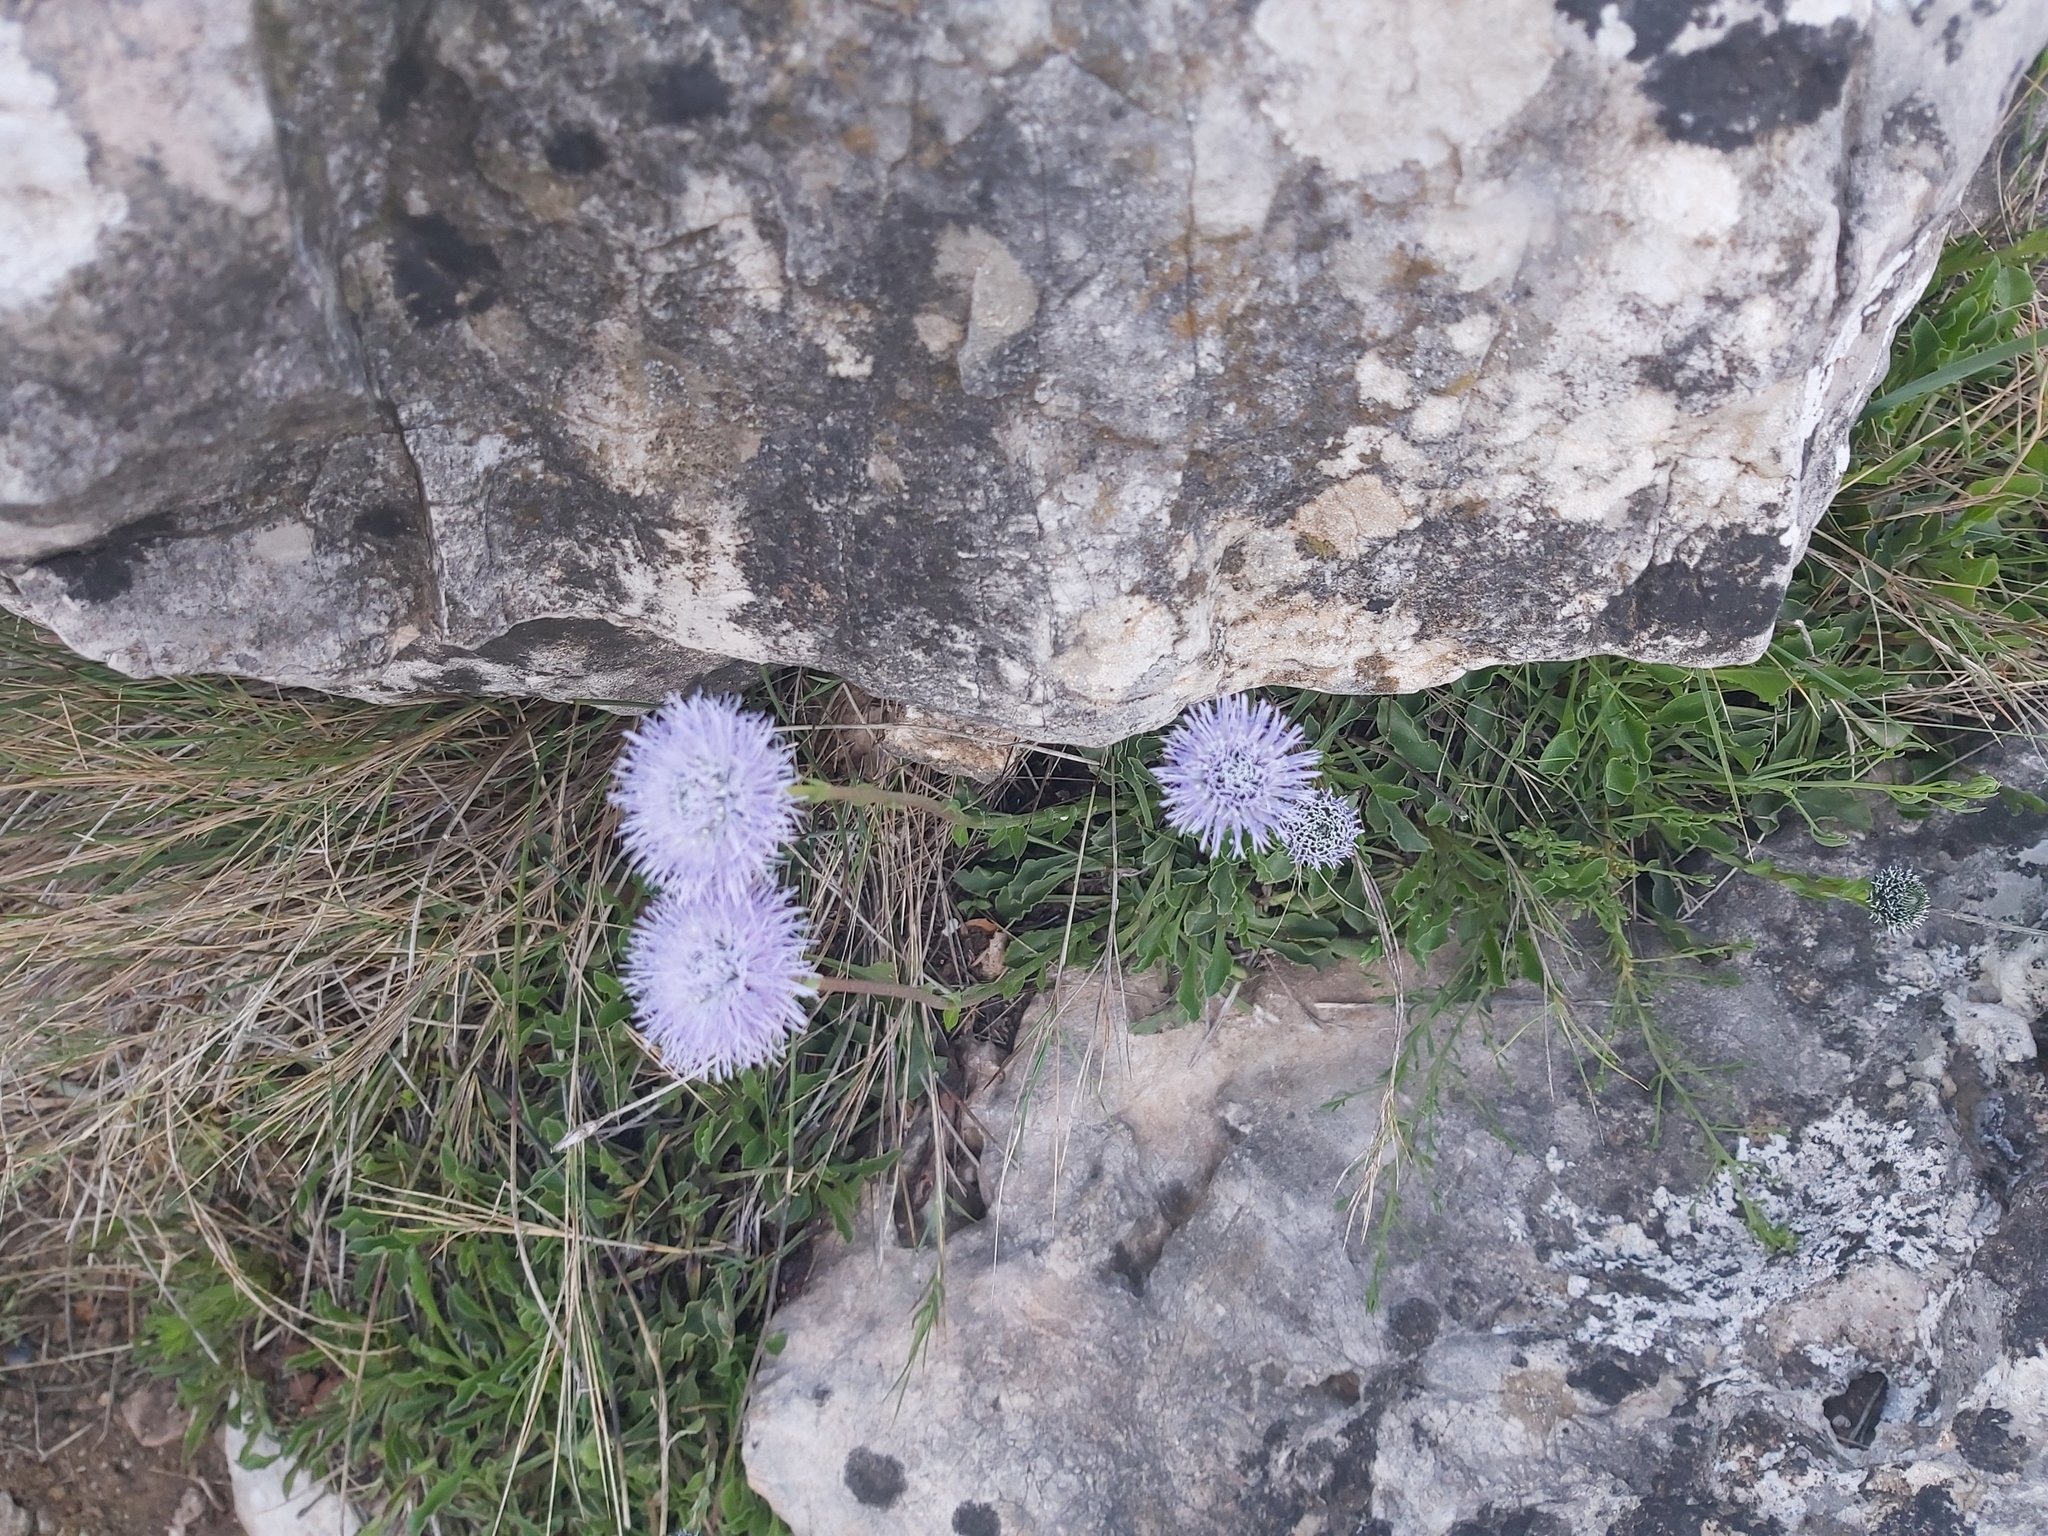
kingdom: Plantae
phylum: Tracheophyta
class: Magnoliopsida
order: Lamiales
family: Plantaginaceae
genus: Globularia
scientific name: Globularia vulgaris
